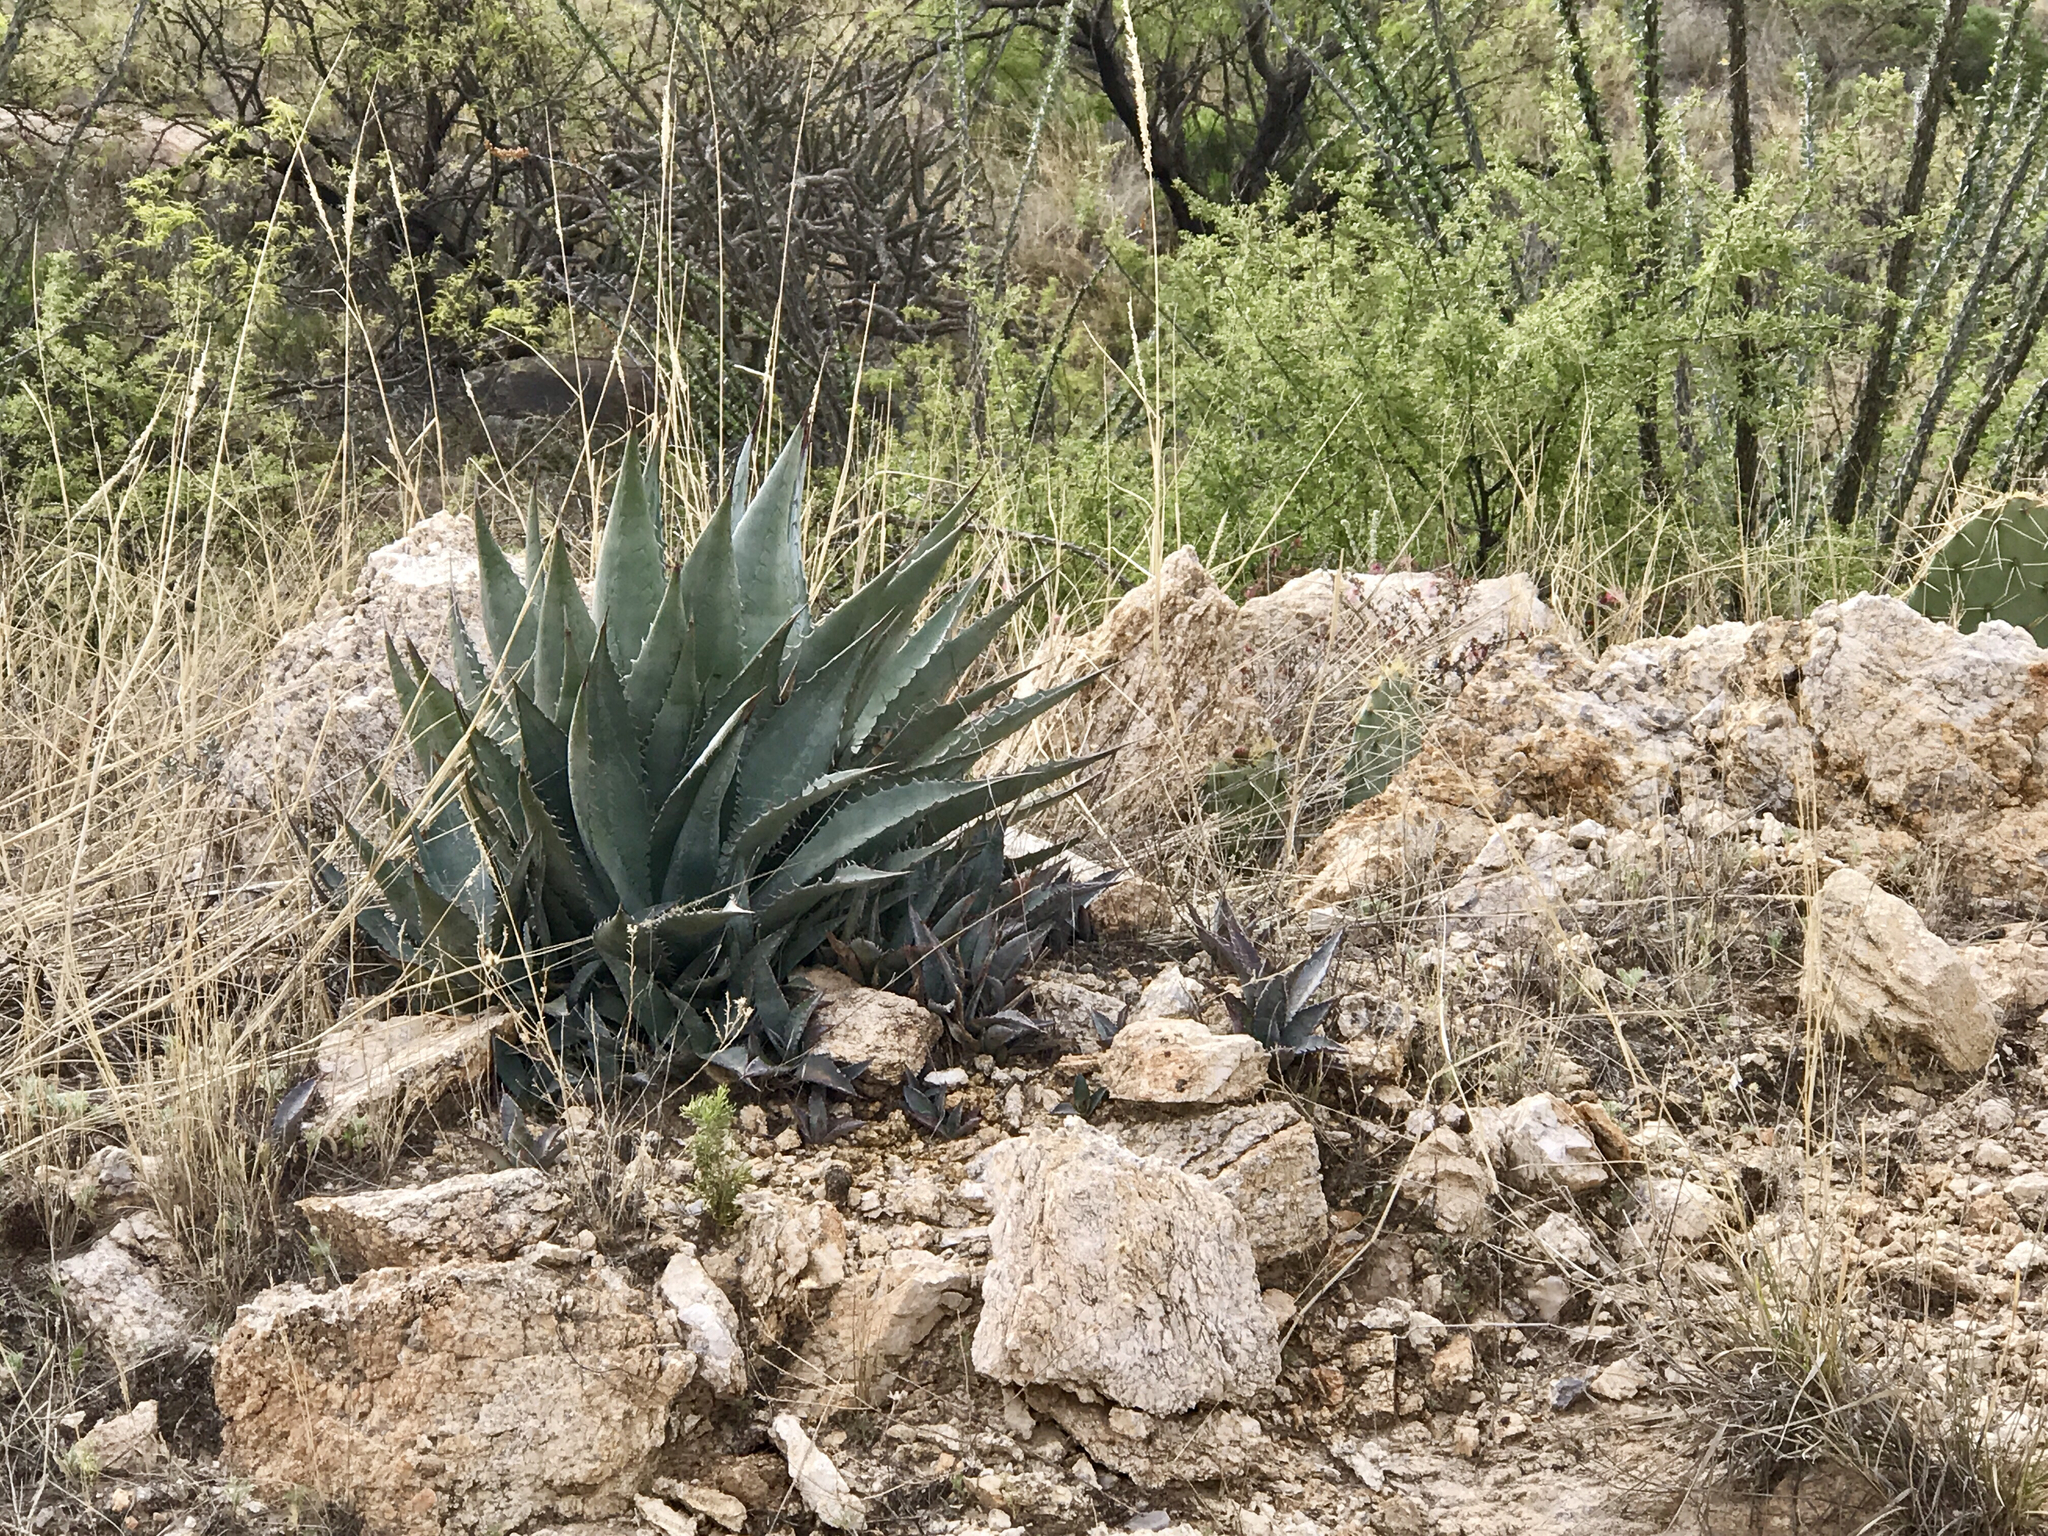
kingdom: Plantae
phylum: Tracheophyta
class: Liliopsida
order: Asparagales
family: Asparagaceae
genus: Agave
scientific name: Agave palmeri
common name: Palmer agave
